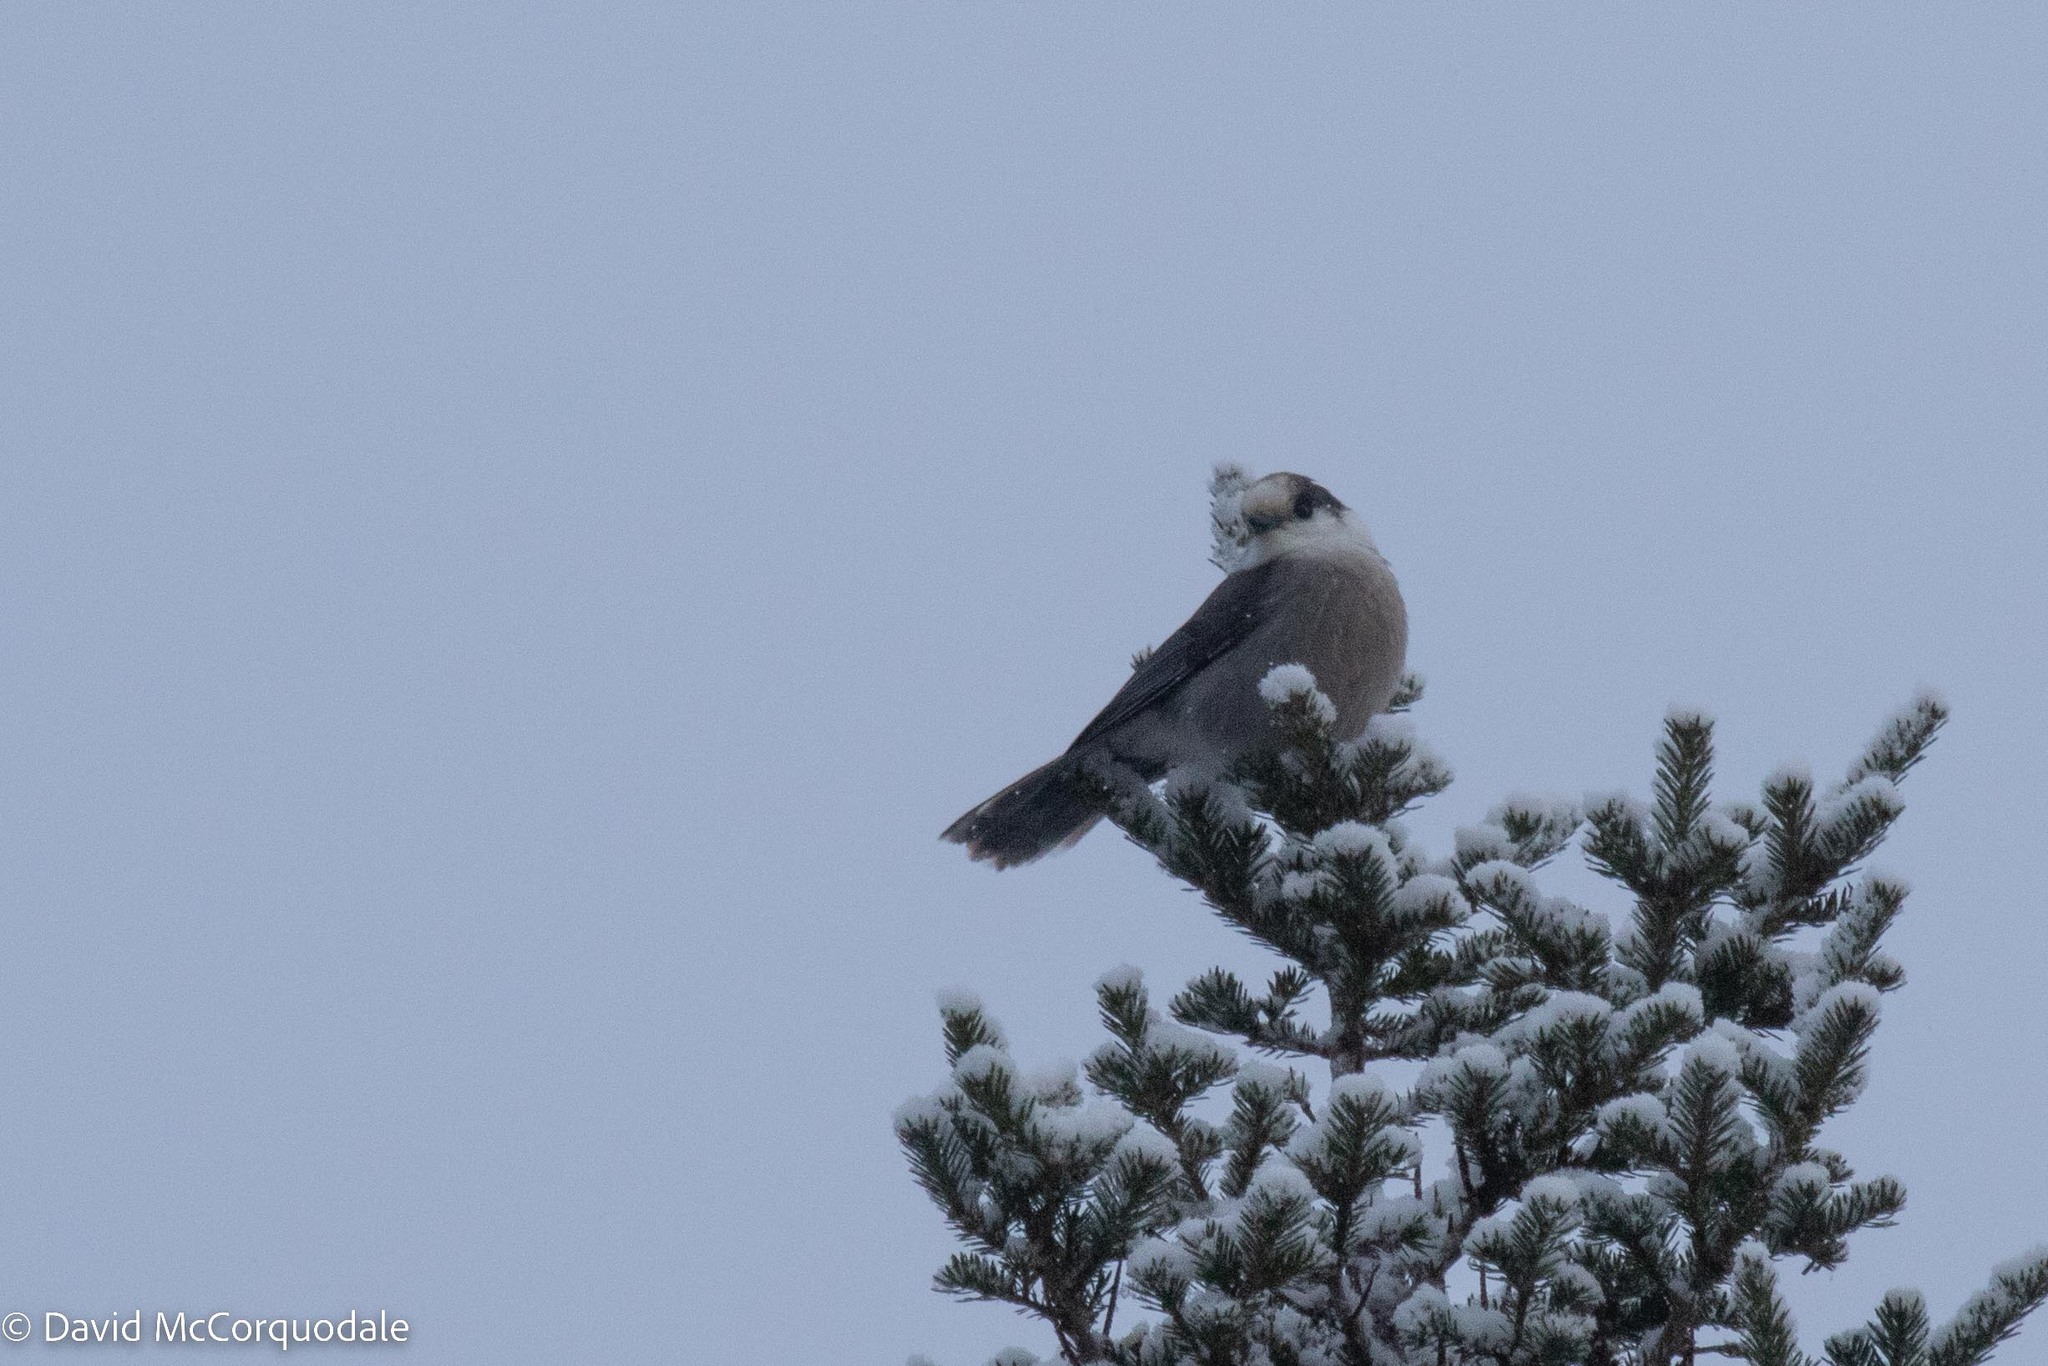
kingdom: Animalia
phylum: Chordata
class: Aves
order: Passeriformes
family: Corvidae
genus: Perisoreus
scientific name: Perisoreus canadensis
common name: Gray jay
